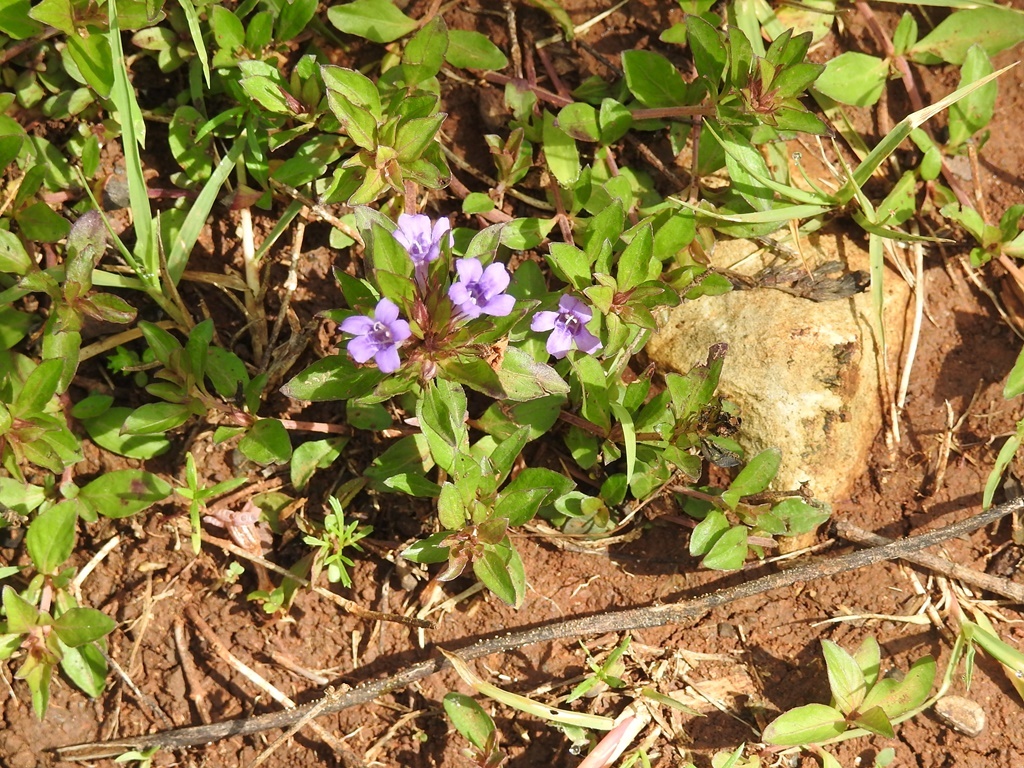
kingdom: Plantae
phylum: Tracheophyta
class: Magnoliopsida
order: Lamiales
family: Acanthaceae
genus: Dyschoriste
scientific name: Dyschoriste capitata
